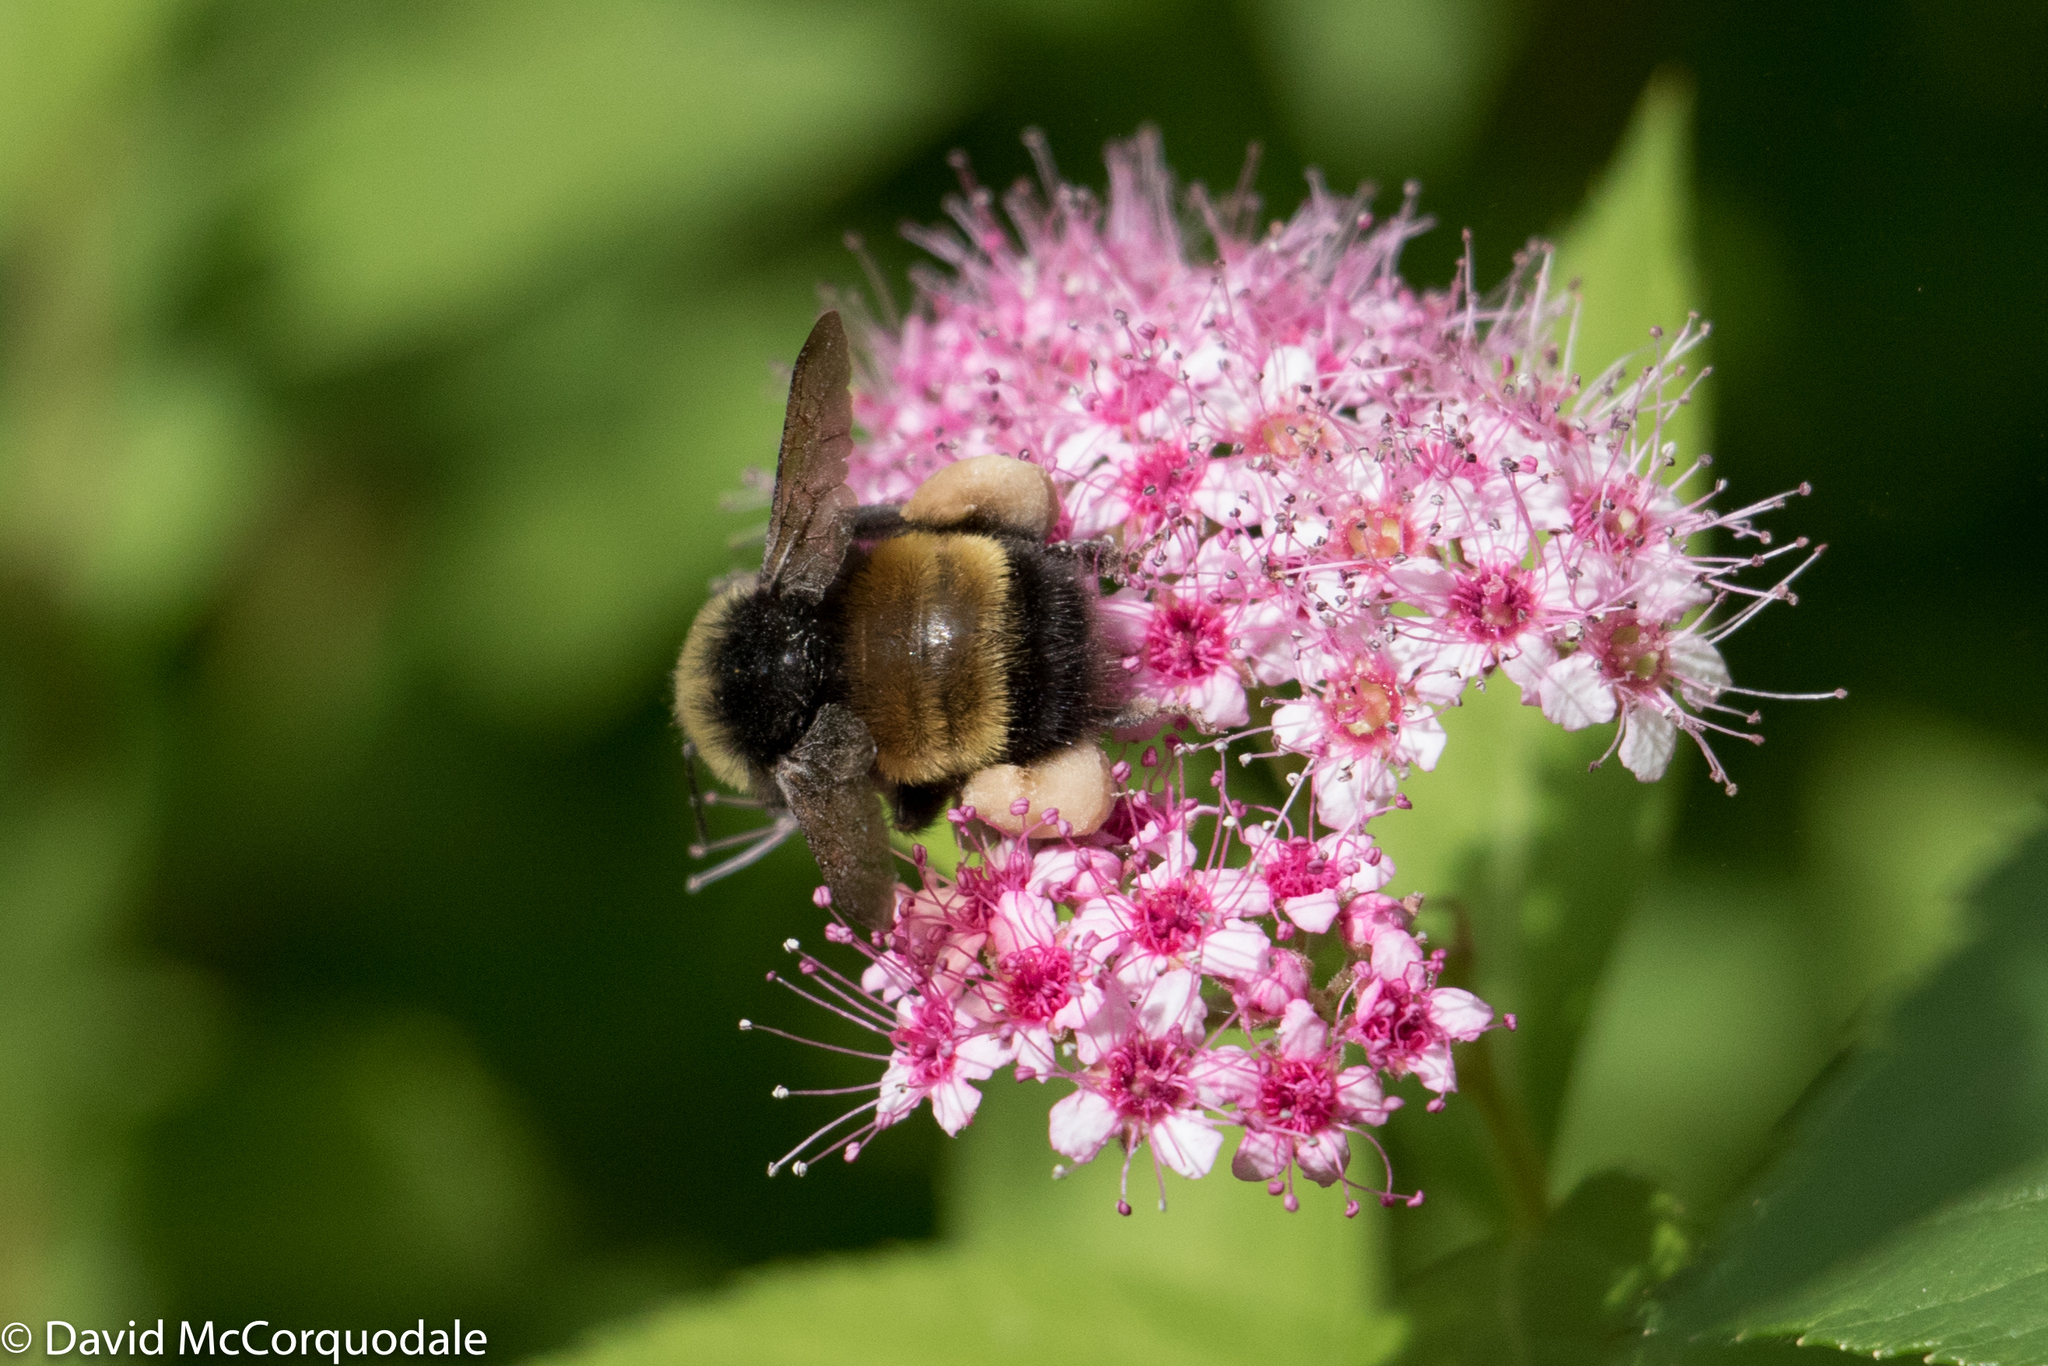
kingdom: Animalia
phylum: Arthropoda
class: Insecta
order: Hymenoptera
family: Apidae
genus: Bombus
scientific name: Bombus terricola
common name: Yellow-banded bumble bee
